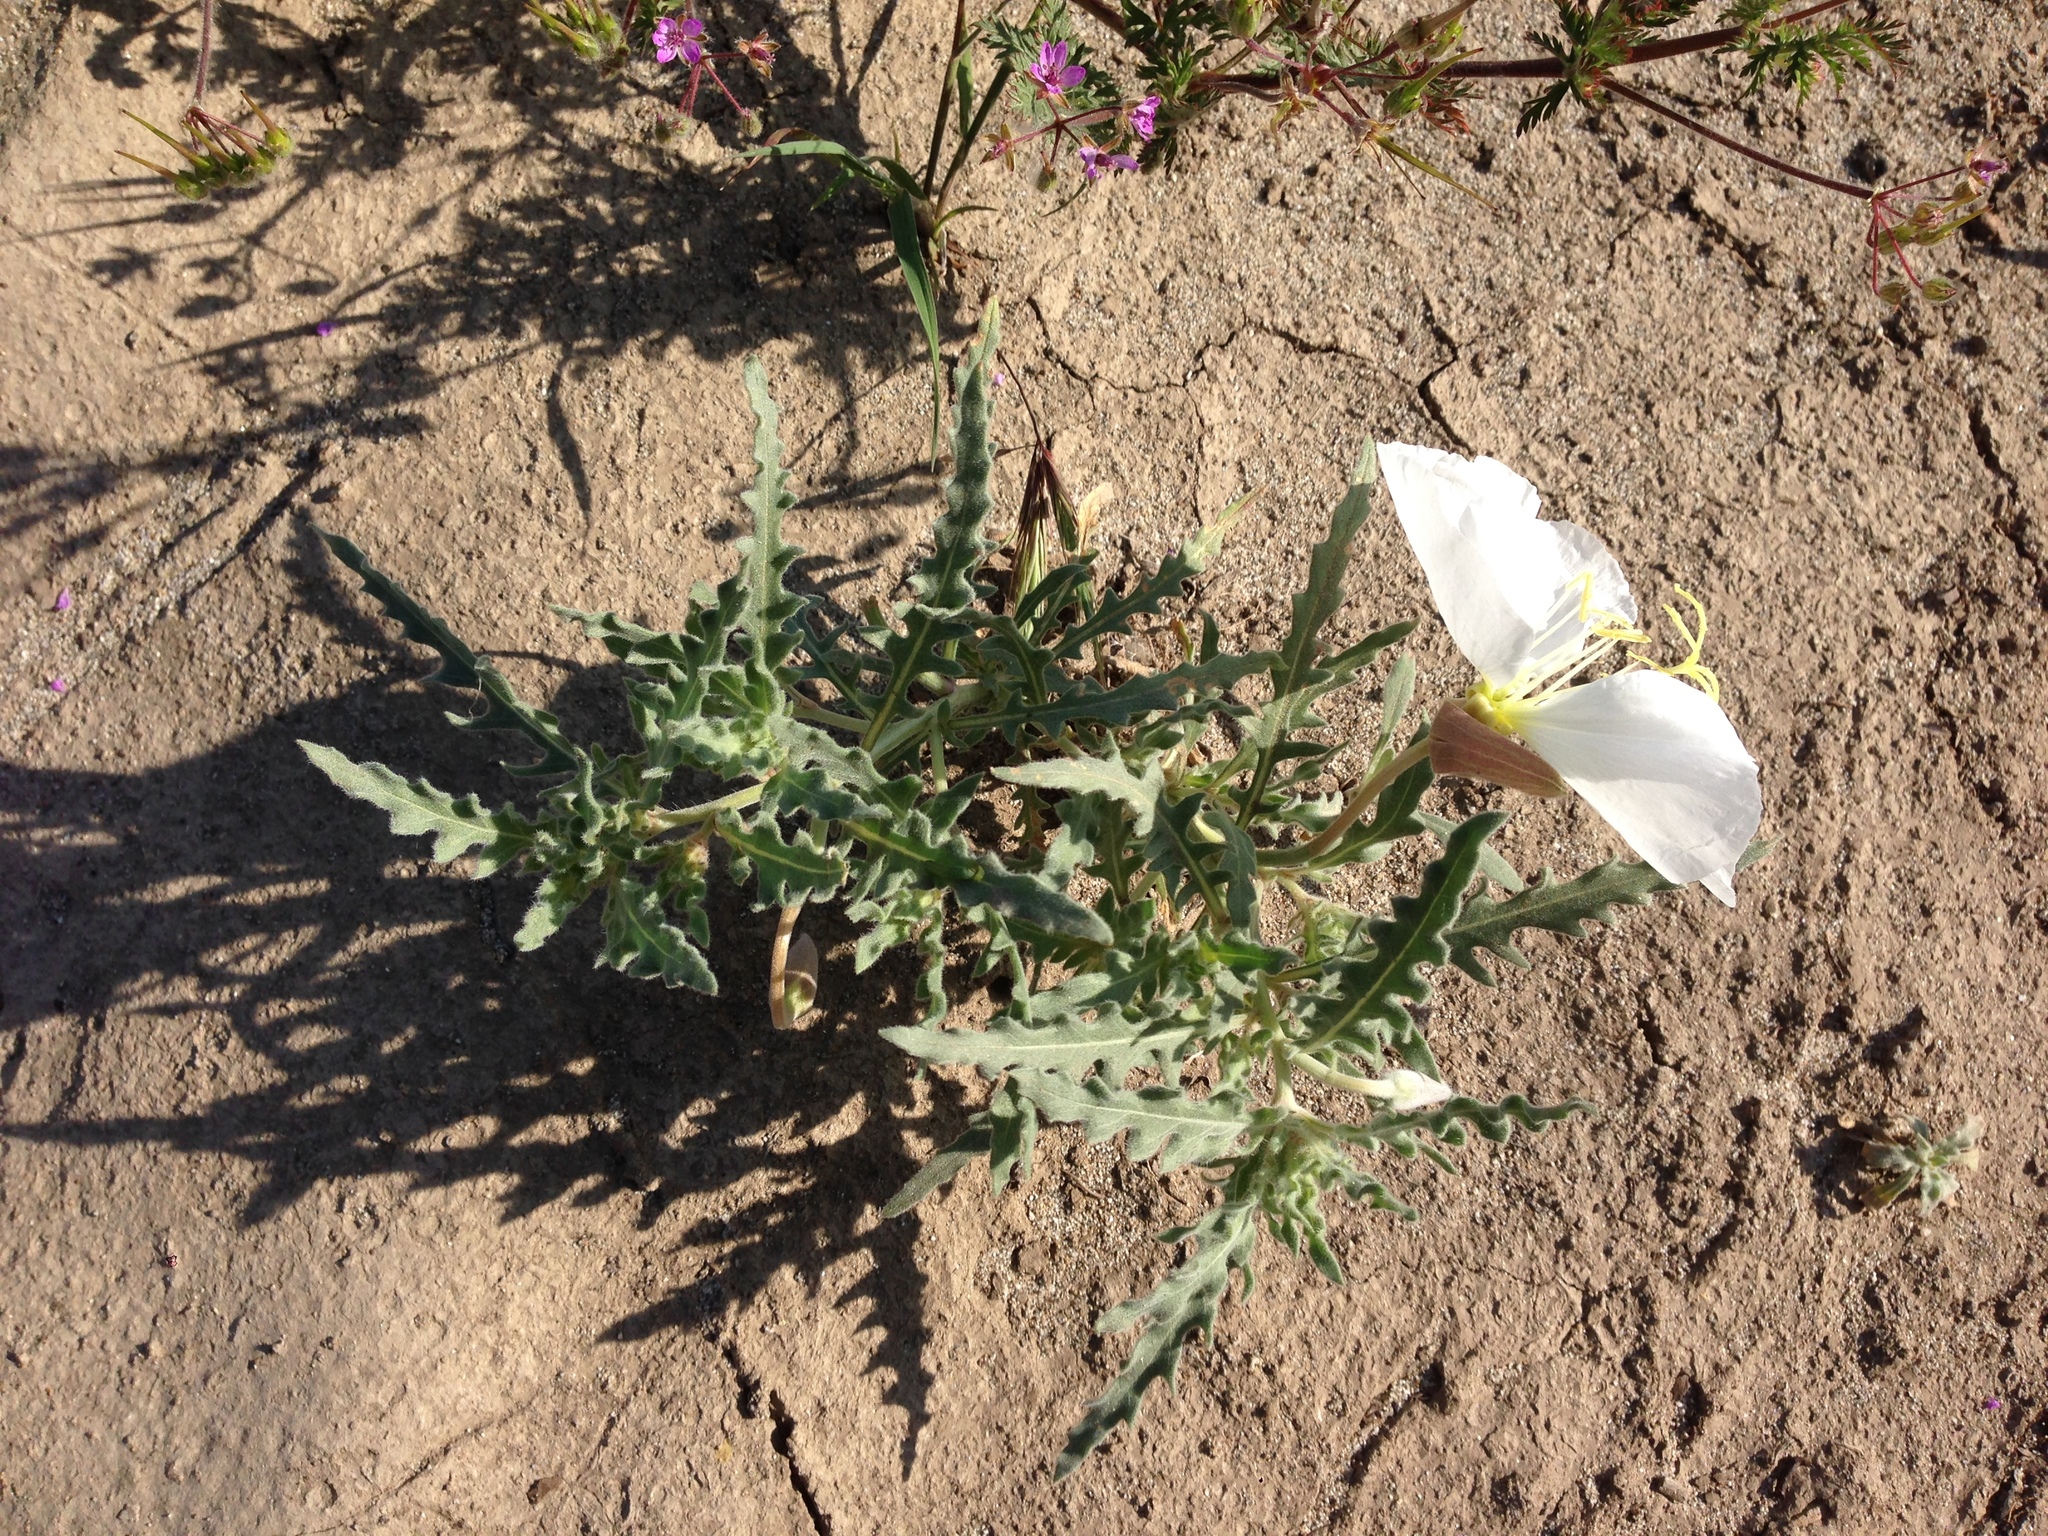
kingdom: Plantae
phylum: Tracheophyta
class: Magnoliopsida
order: Myrtales
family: Onagraceae
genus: Oenothera
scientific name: Oenothera californica
